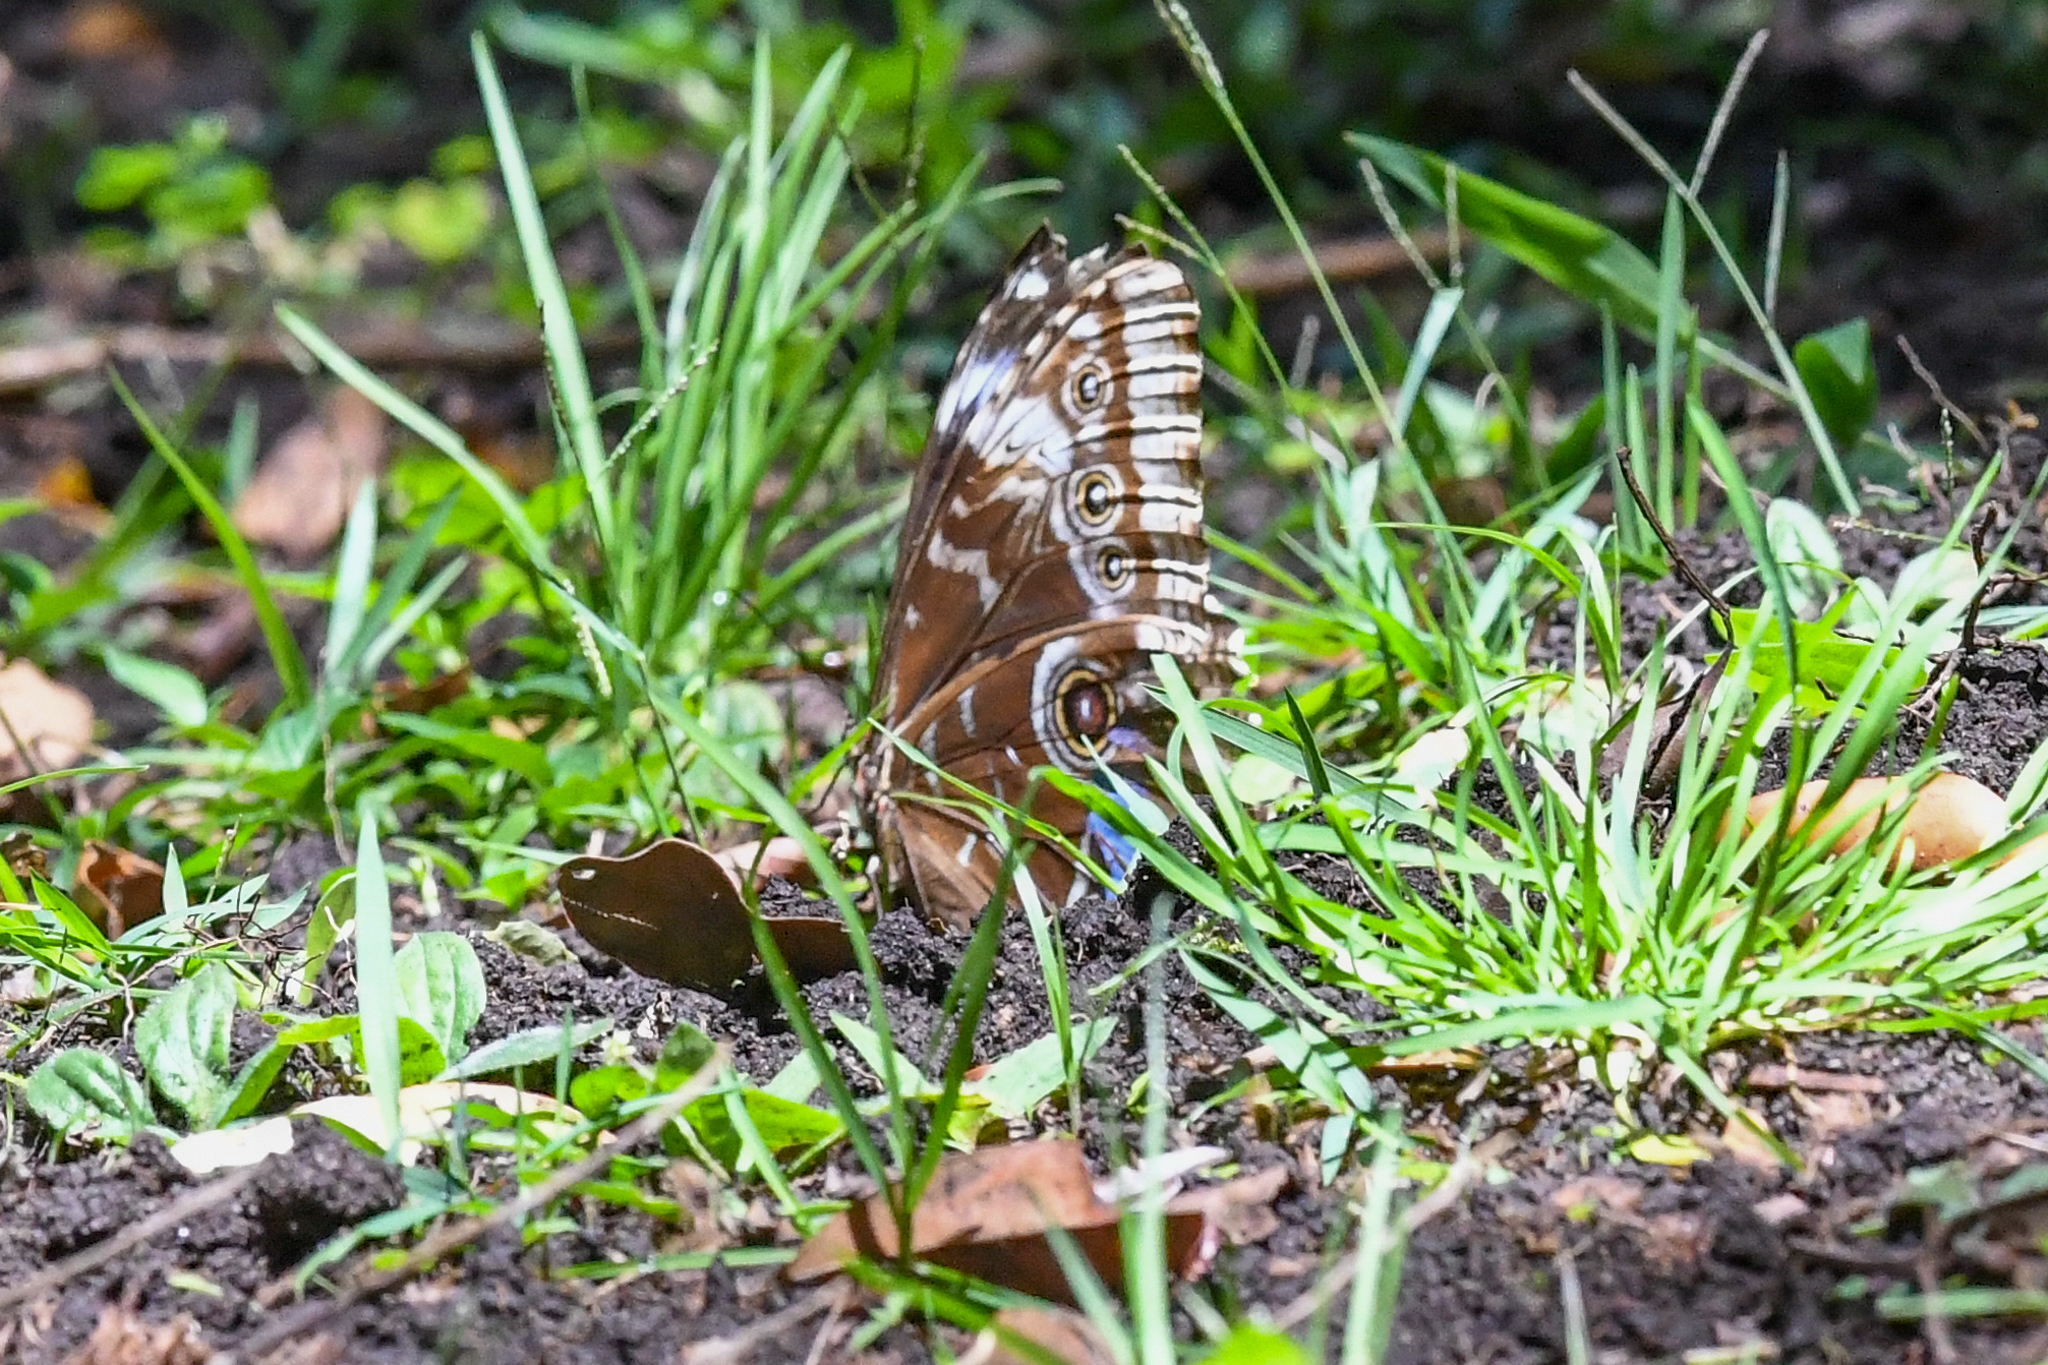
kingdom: Animalia
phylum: Arthropoda
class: Insecta
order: Lepidoptera
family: Nymphalidae
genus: Morpho
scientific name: Morpho helenor
